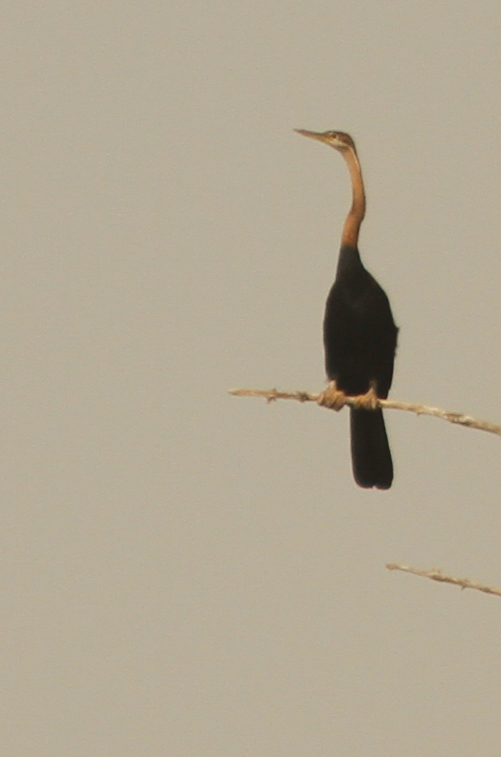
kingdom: Animalia
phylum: Chordata
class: Aves
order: Suliformes
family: Anhingidae
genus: Anhinga
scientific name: Anhinga rufa
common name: African darter
